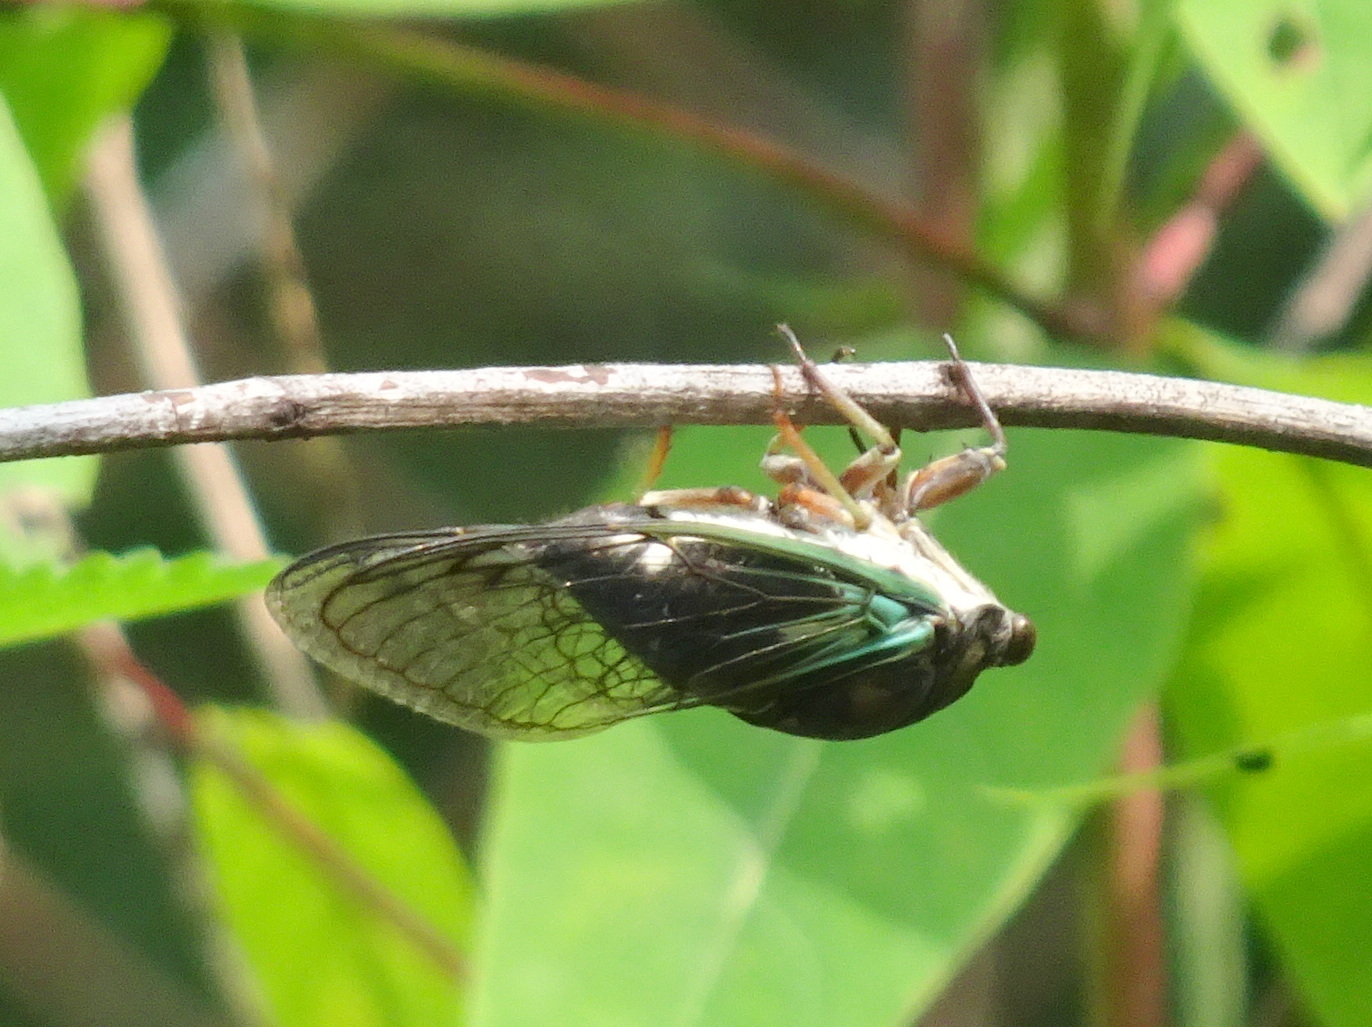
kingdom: Animalia
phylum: Arthropoda
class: Insecta
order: Hemiptera
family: Cicadidae
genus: Neotibicen
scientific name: Neotibicen lyricen
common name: Lyric cicada
